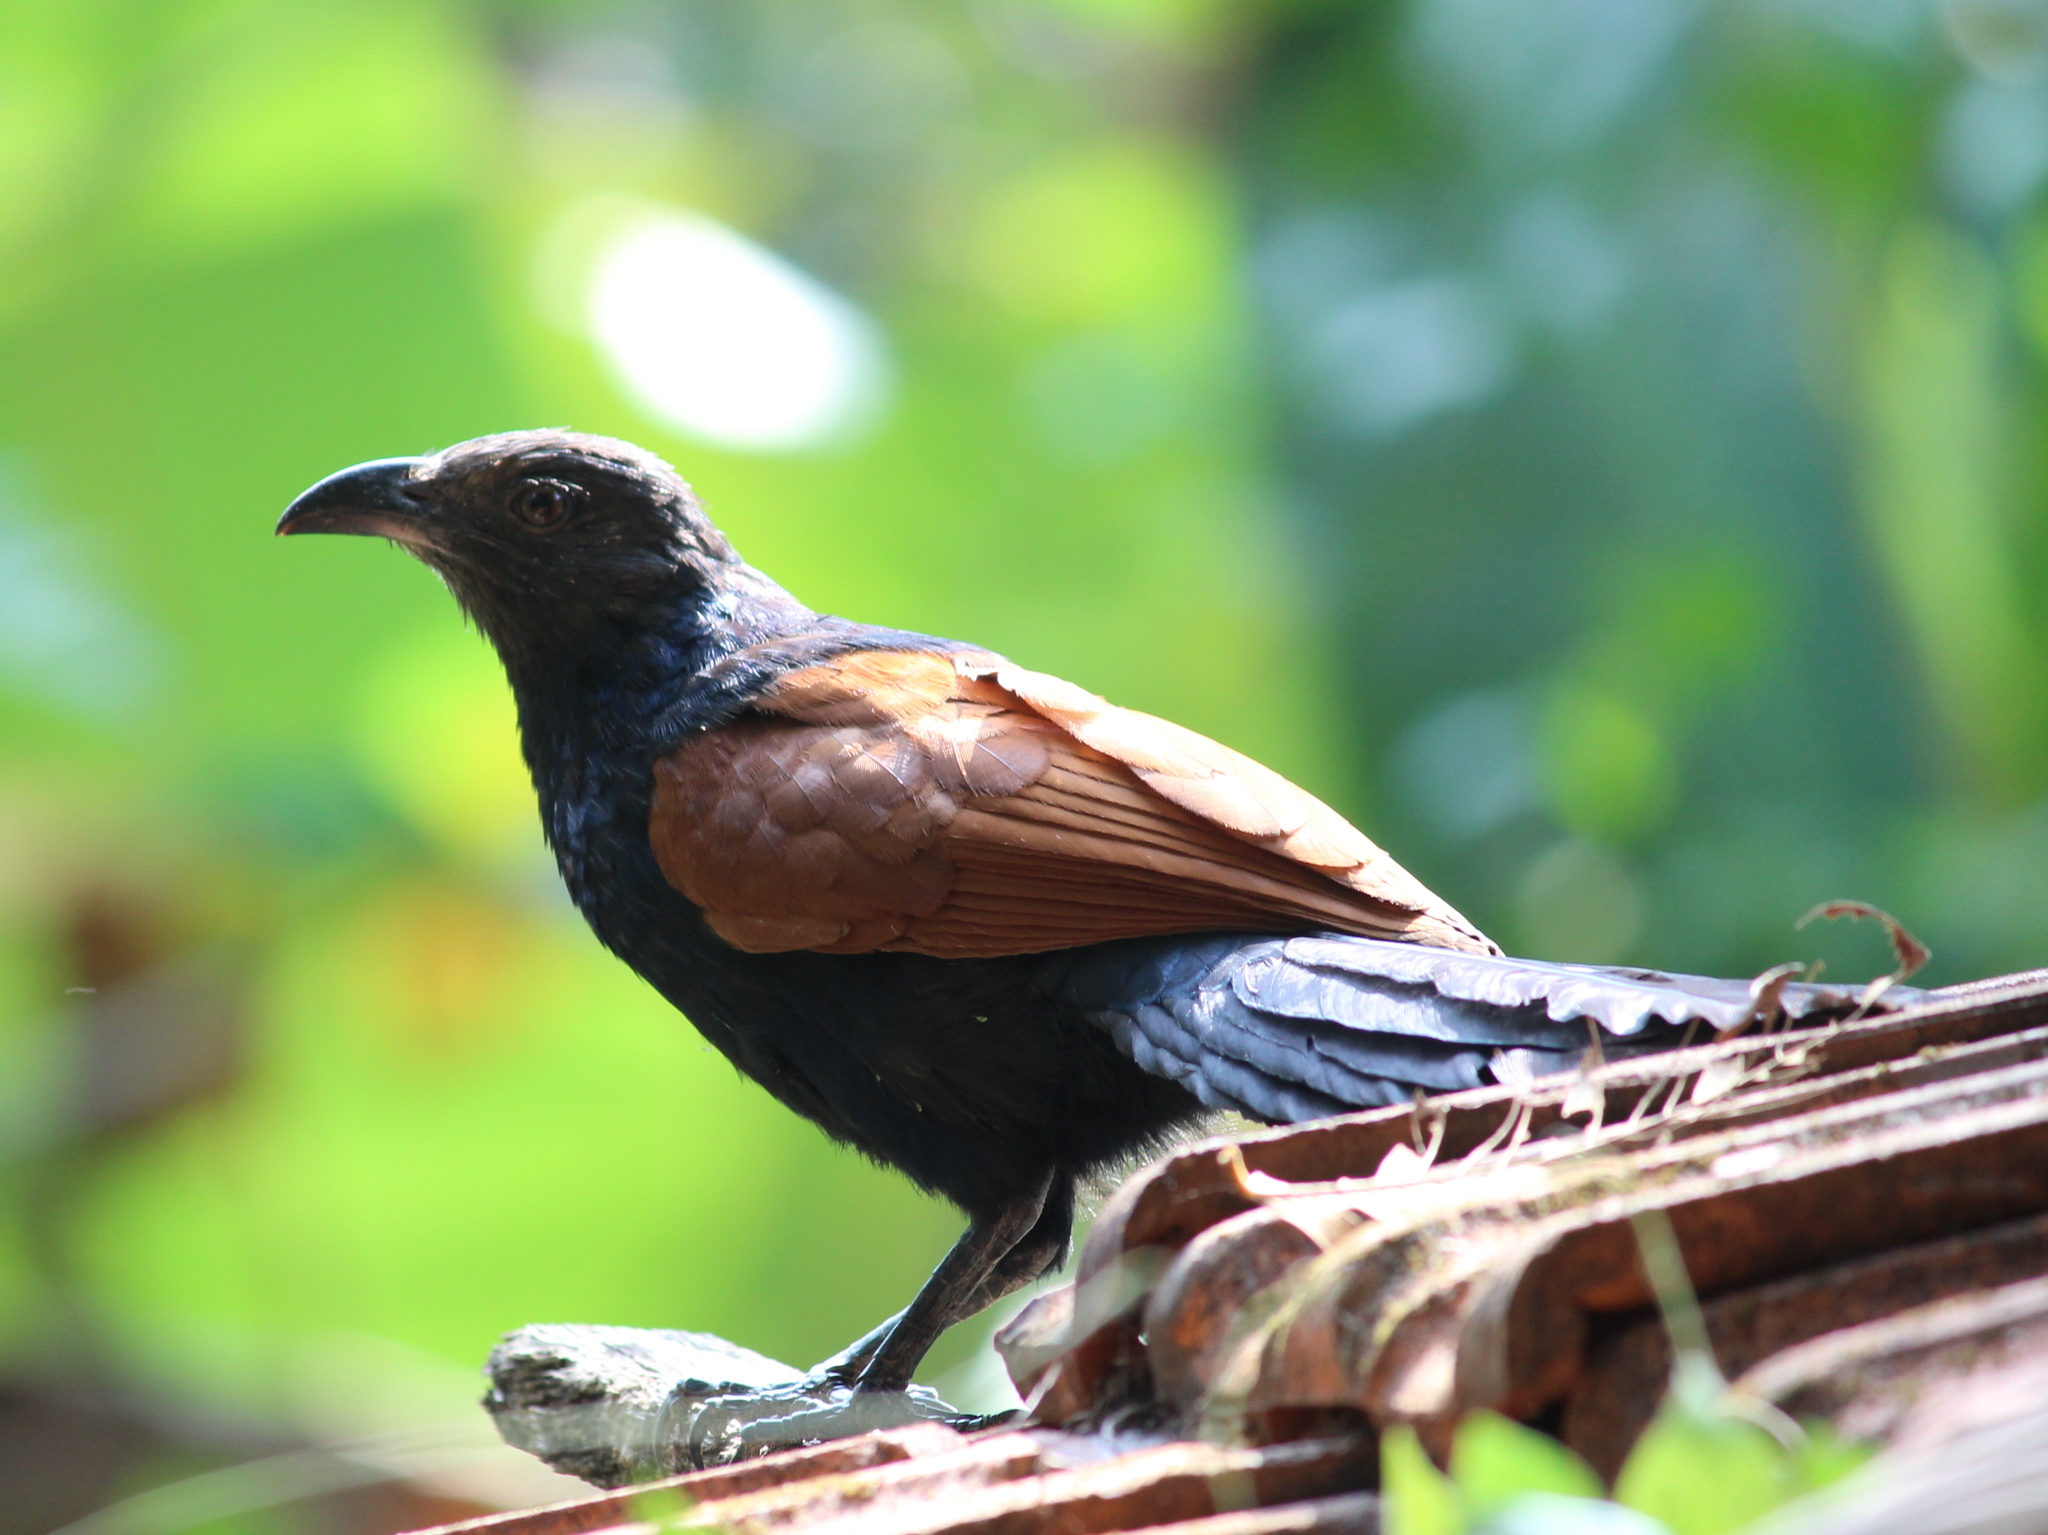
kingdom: Animalia
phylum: Chordata
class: Aves
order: Cuculiformes
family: Cuculidae
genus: Centropus
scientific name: Centropus sinensis
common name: Greater coucal
